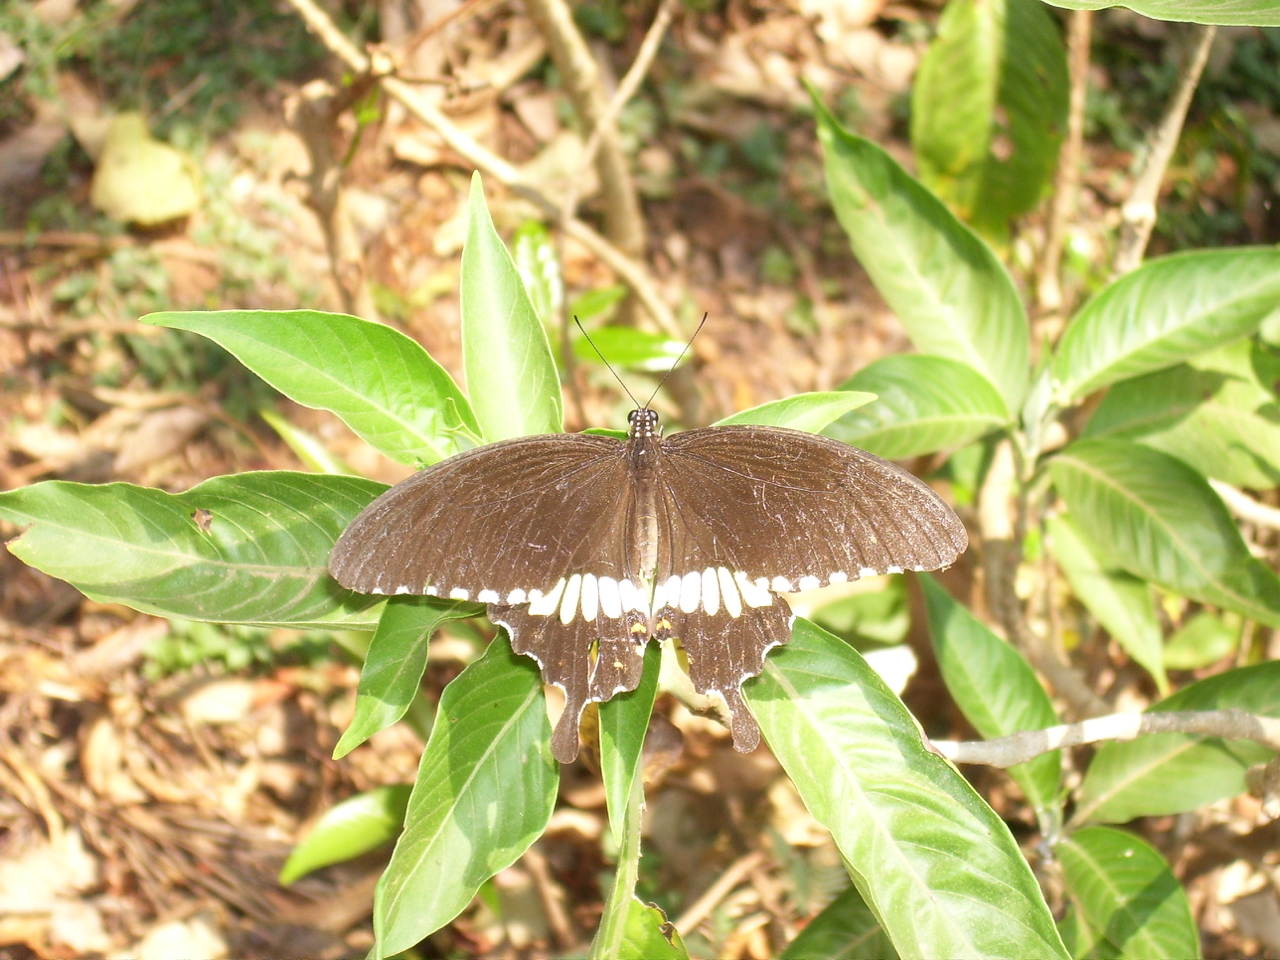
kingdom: Animalia
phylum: Arthropoda
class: Insecta
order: Lepidoptera
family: Papilionidae
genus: Papilio
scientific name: Papilio polytes
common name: Common mormon
